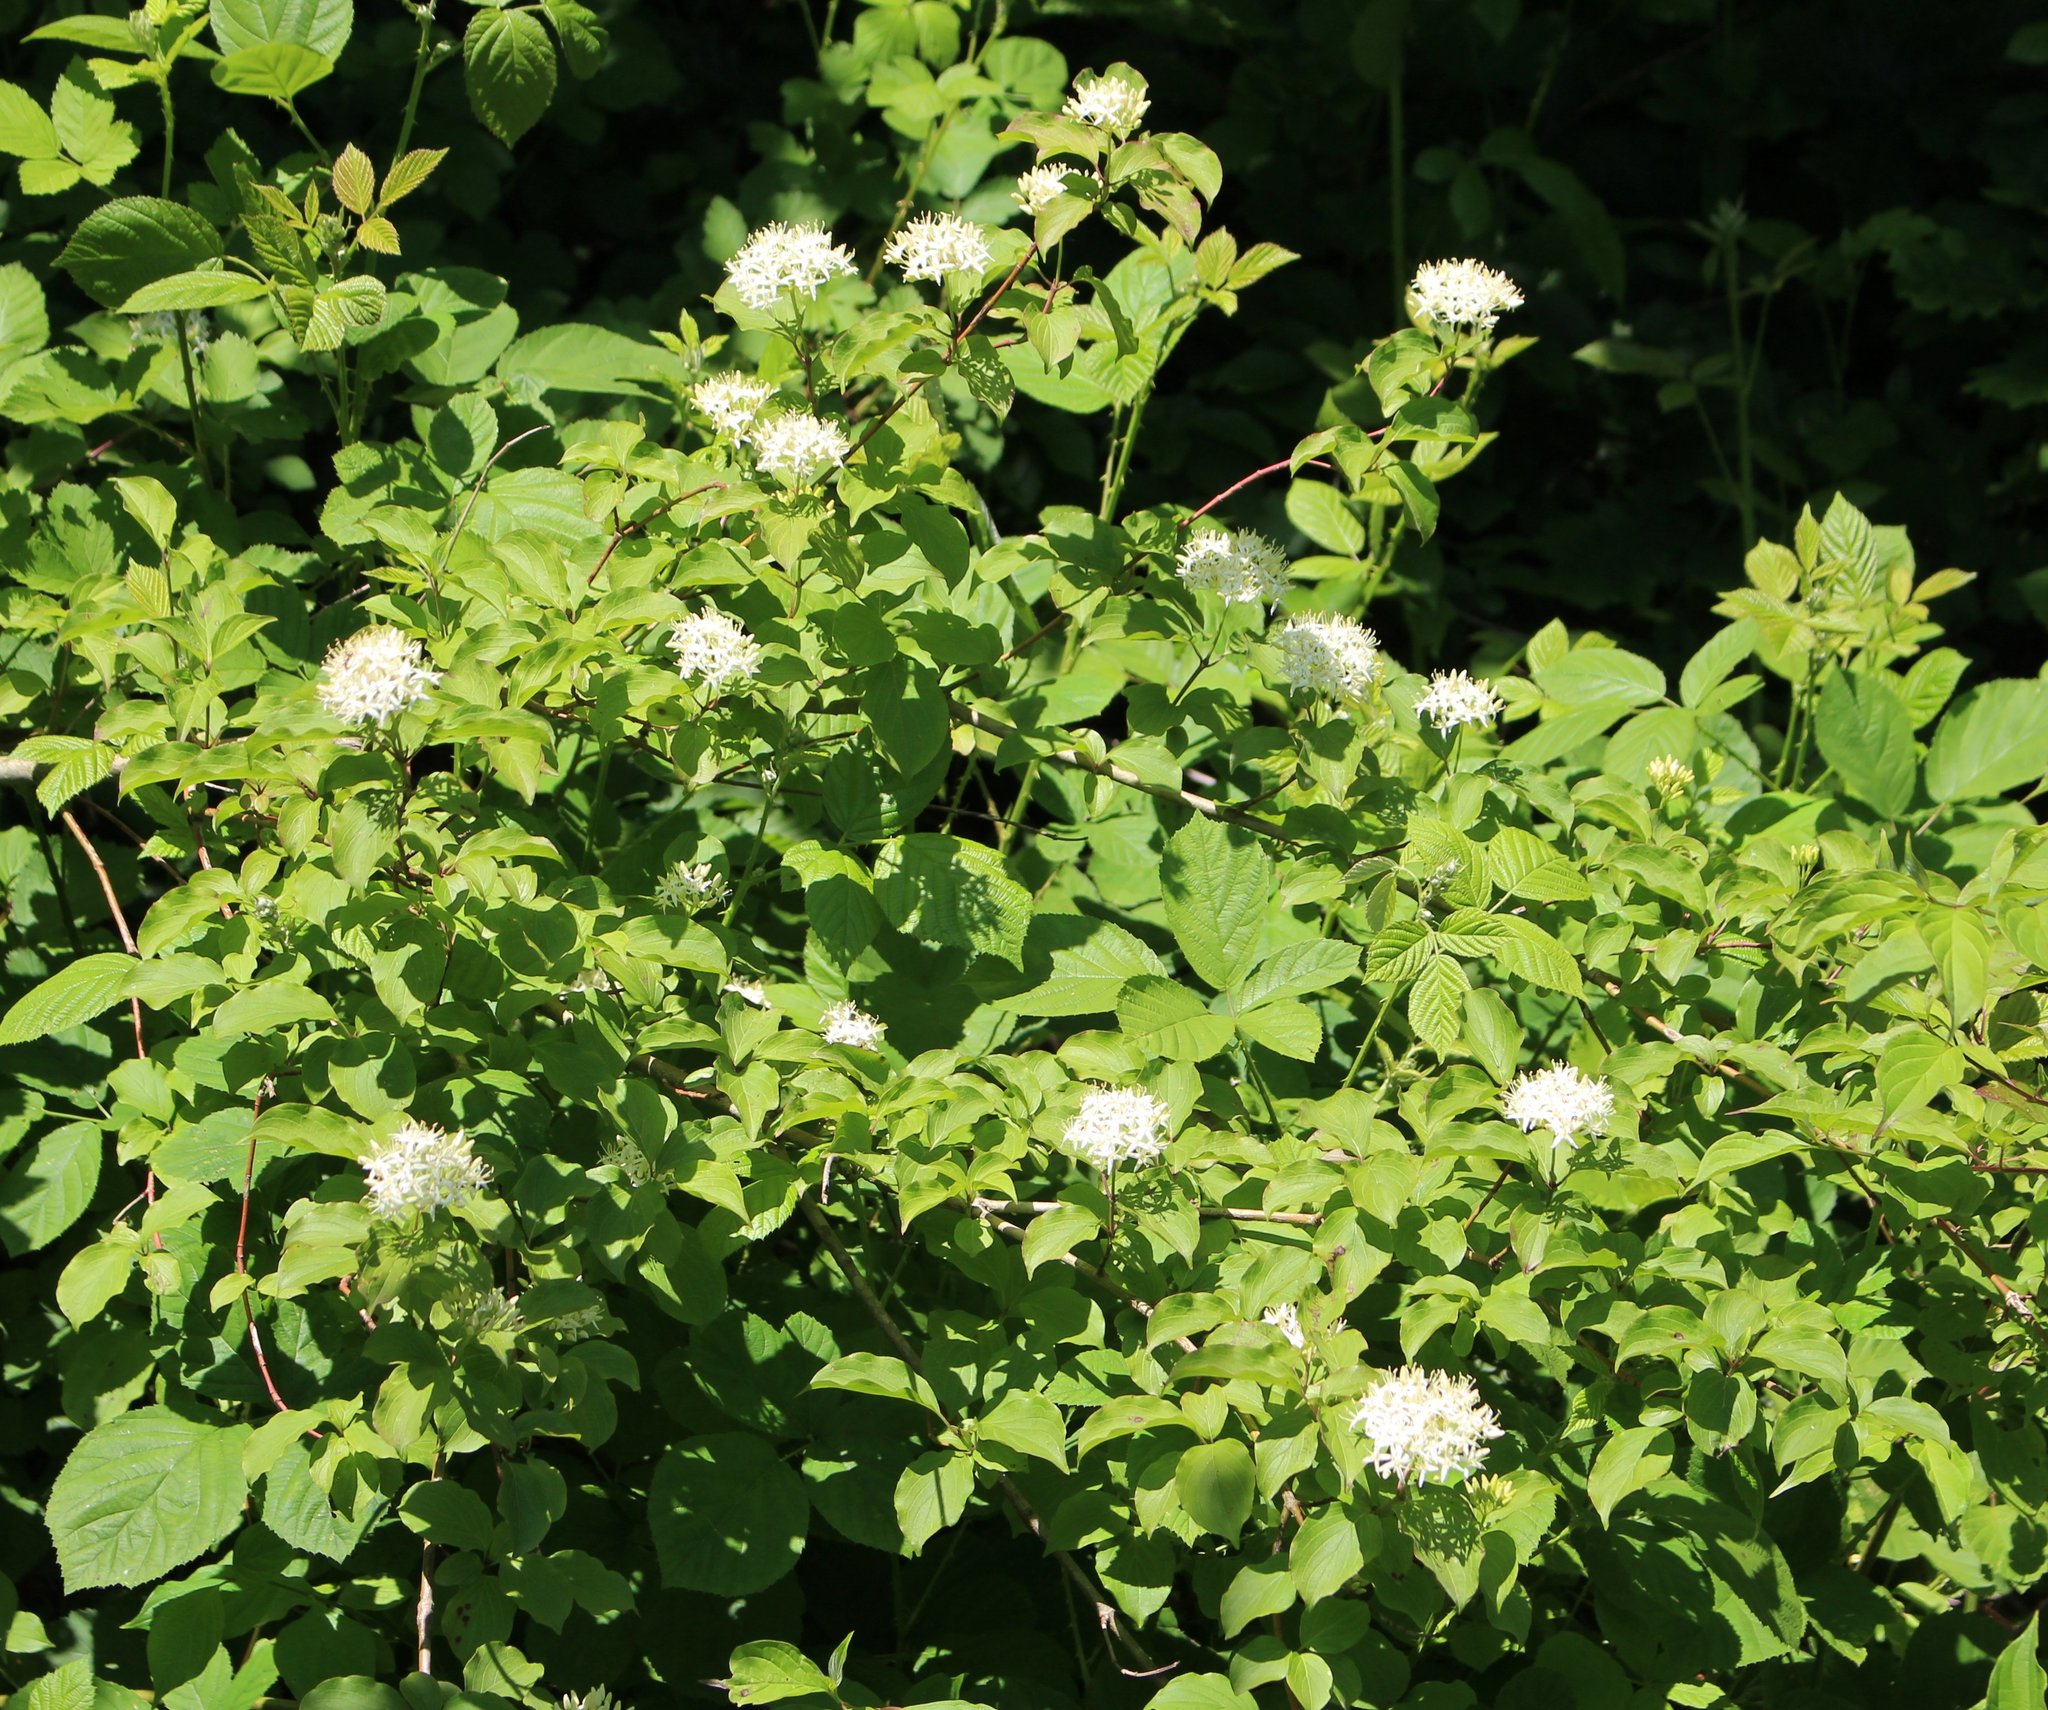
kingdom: Plantae
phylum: Tracheophyta
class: Magnoliopsida
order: Cornales
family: Cornaceae
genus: Cornus
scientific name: Cornus sanguinea
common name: Dogwood
